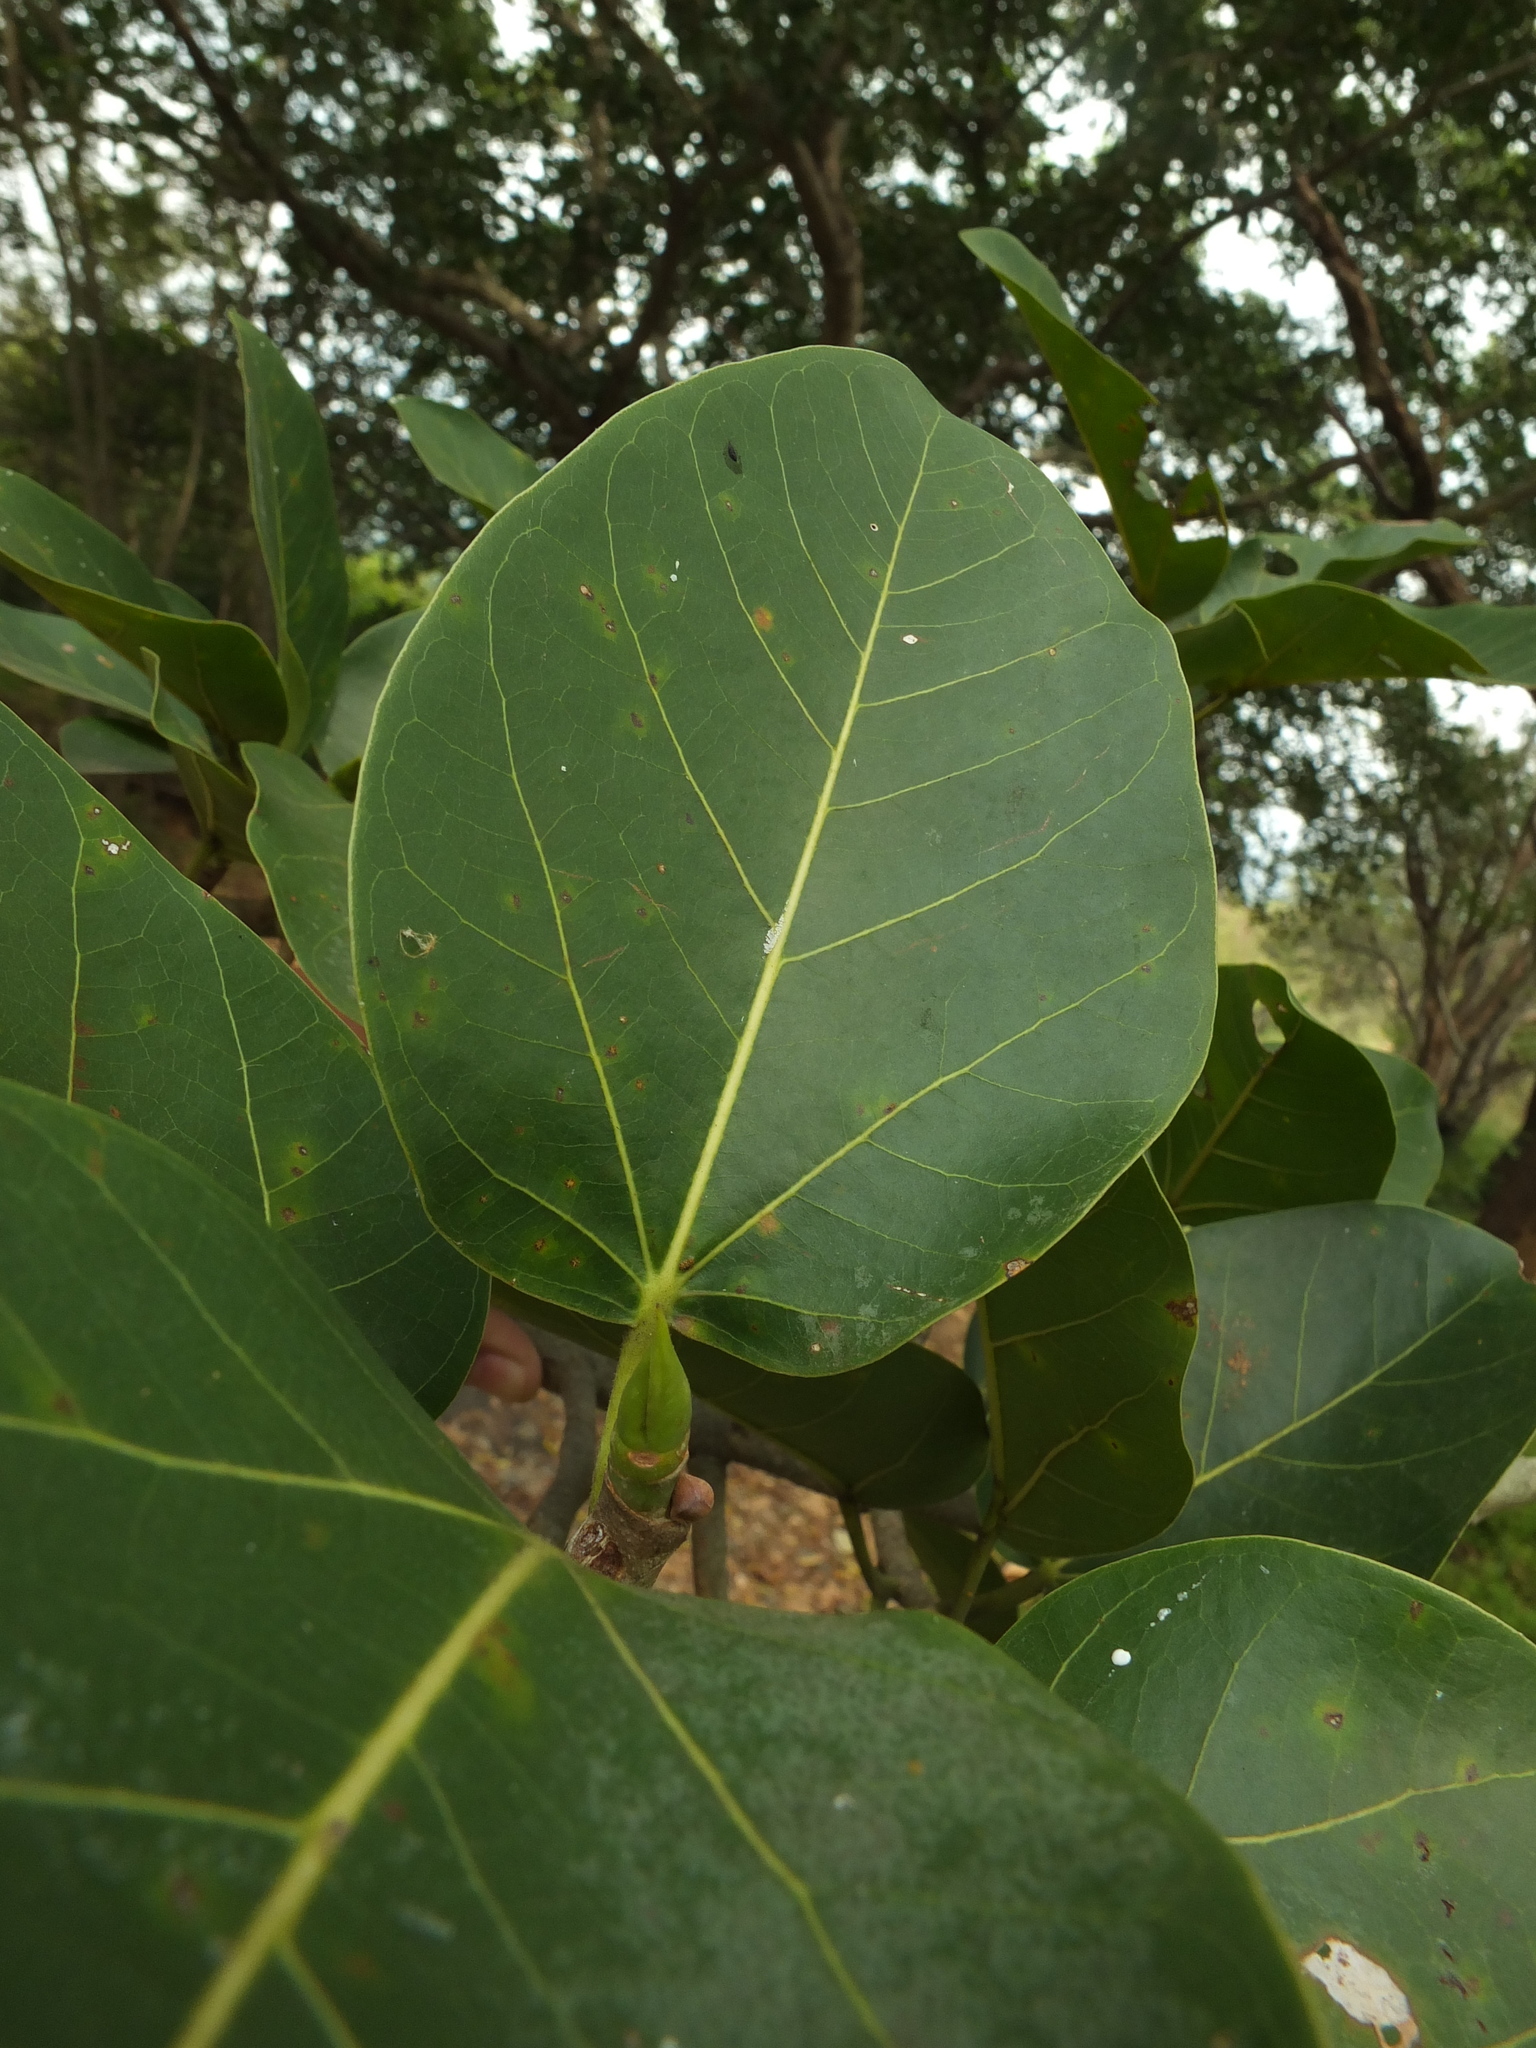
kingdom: Plantae
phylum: Tracheophyta
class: Magnoliopsida
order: Rosales
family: Moraceae
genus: Ficus
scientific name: Ficus benghalensis
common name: Indian banyan
